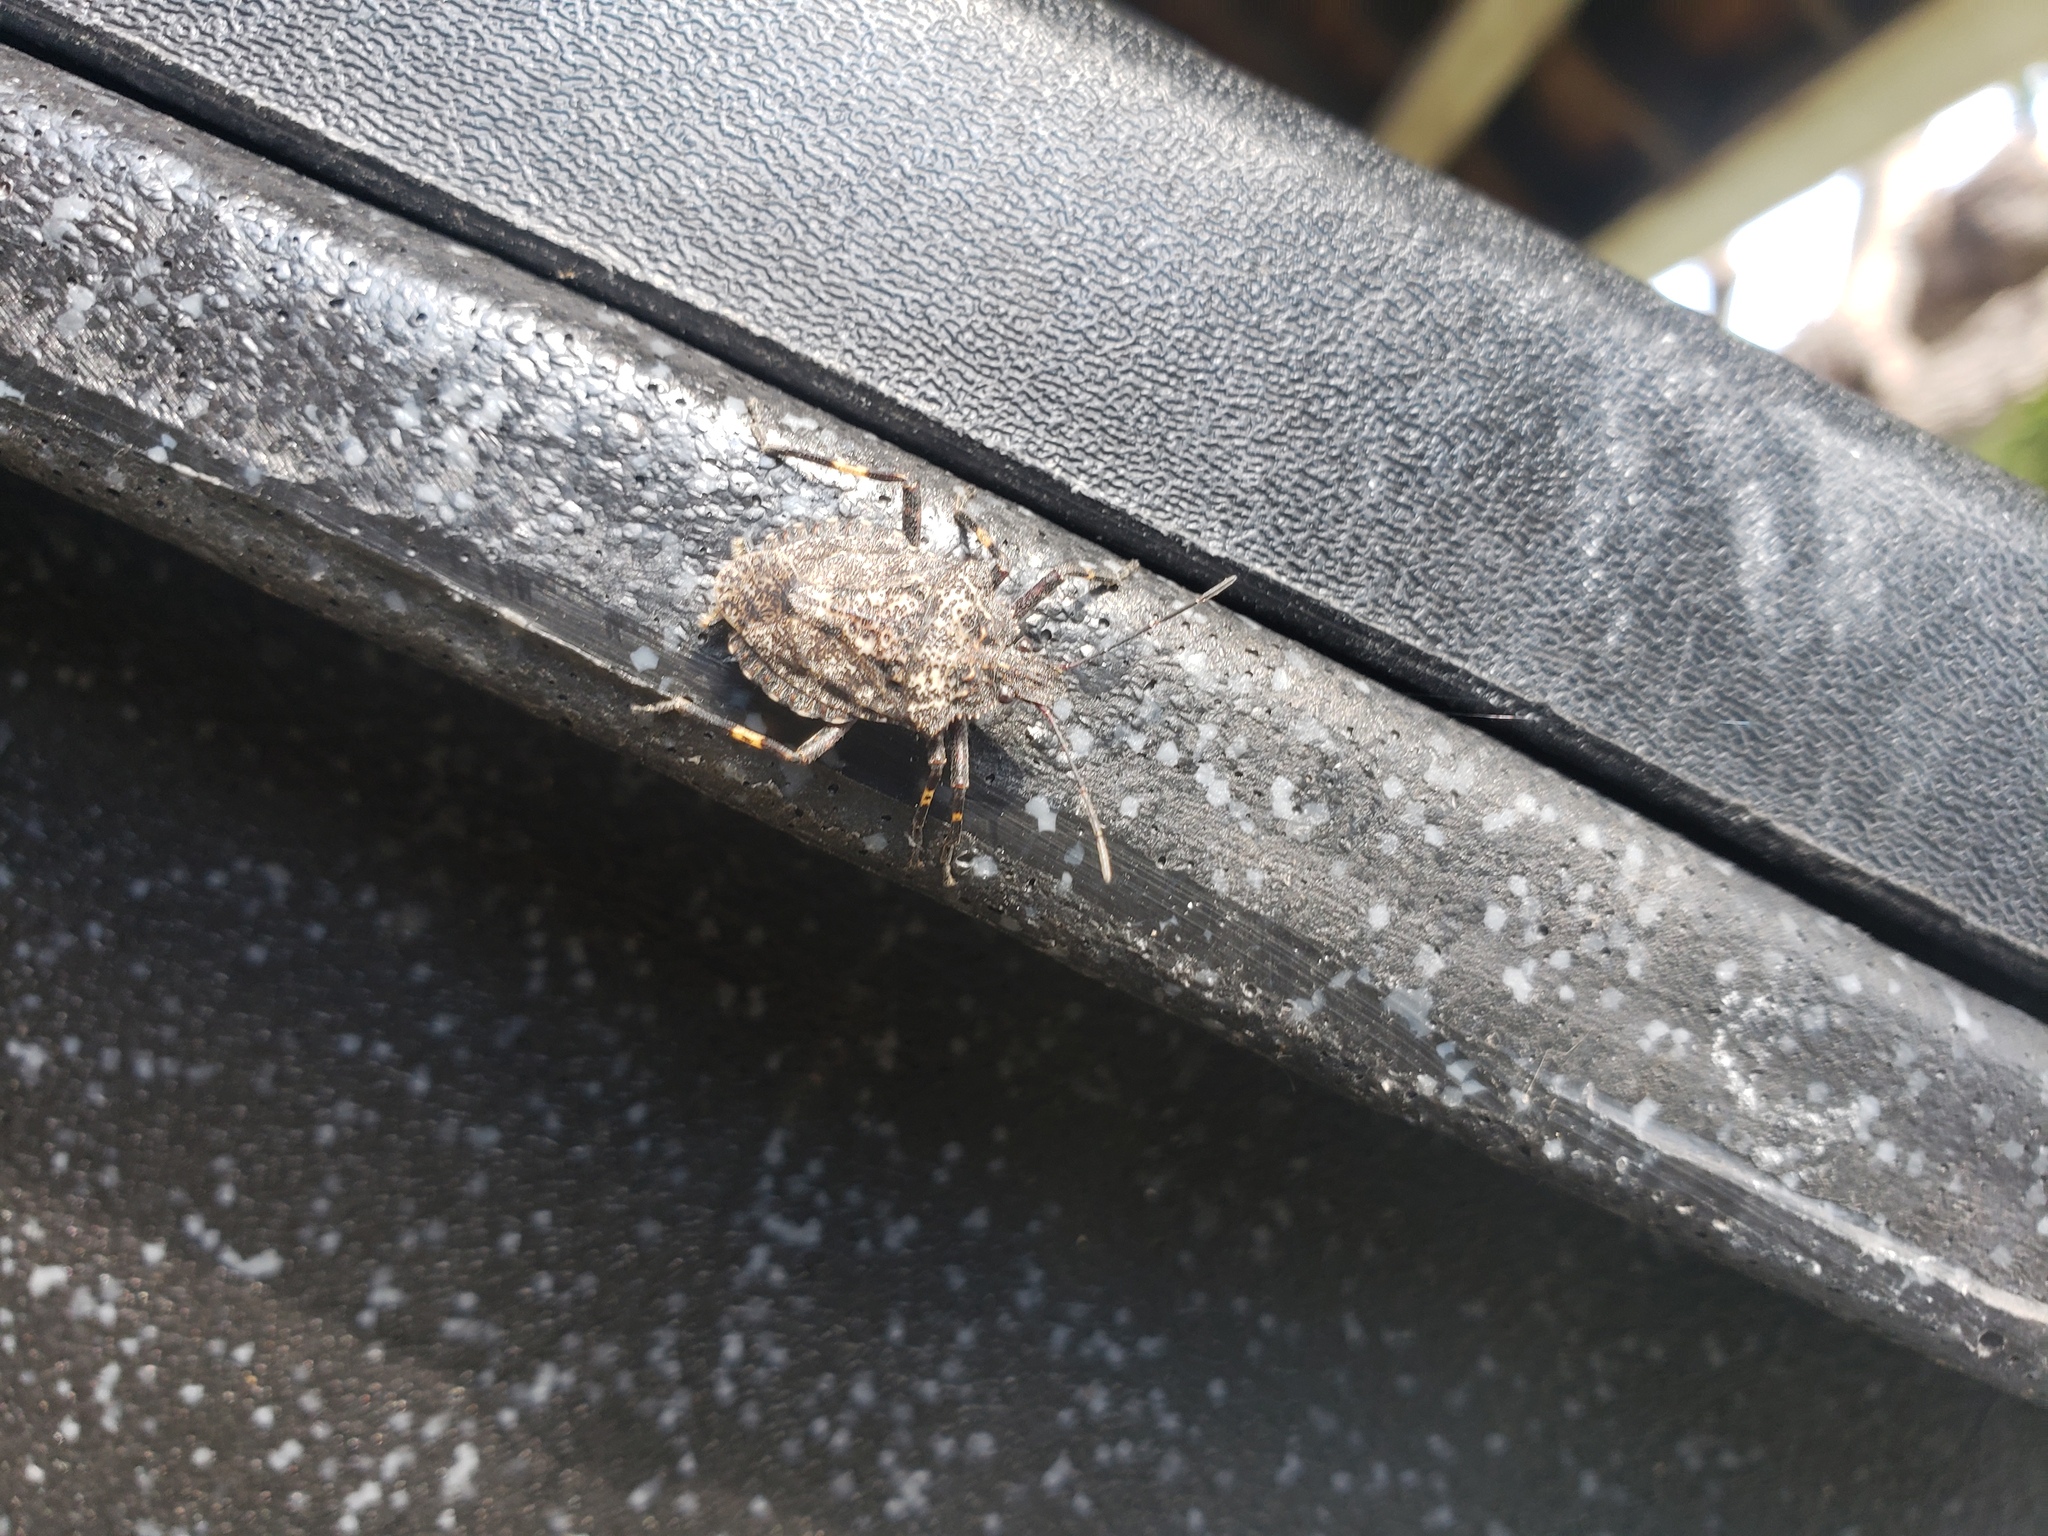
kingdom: Animalia
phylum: Arthropoda
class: Insecta
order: Hemiptera
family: Pentatomidae
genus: Brochymena
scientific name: Brochymena affinis
